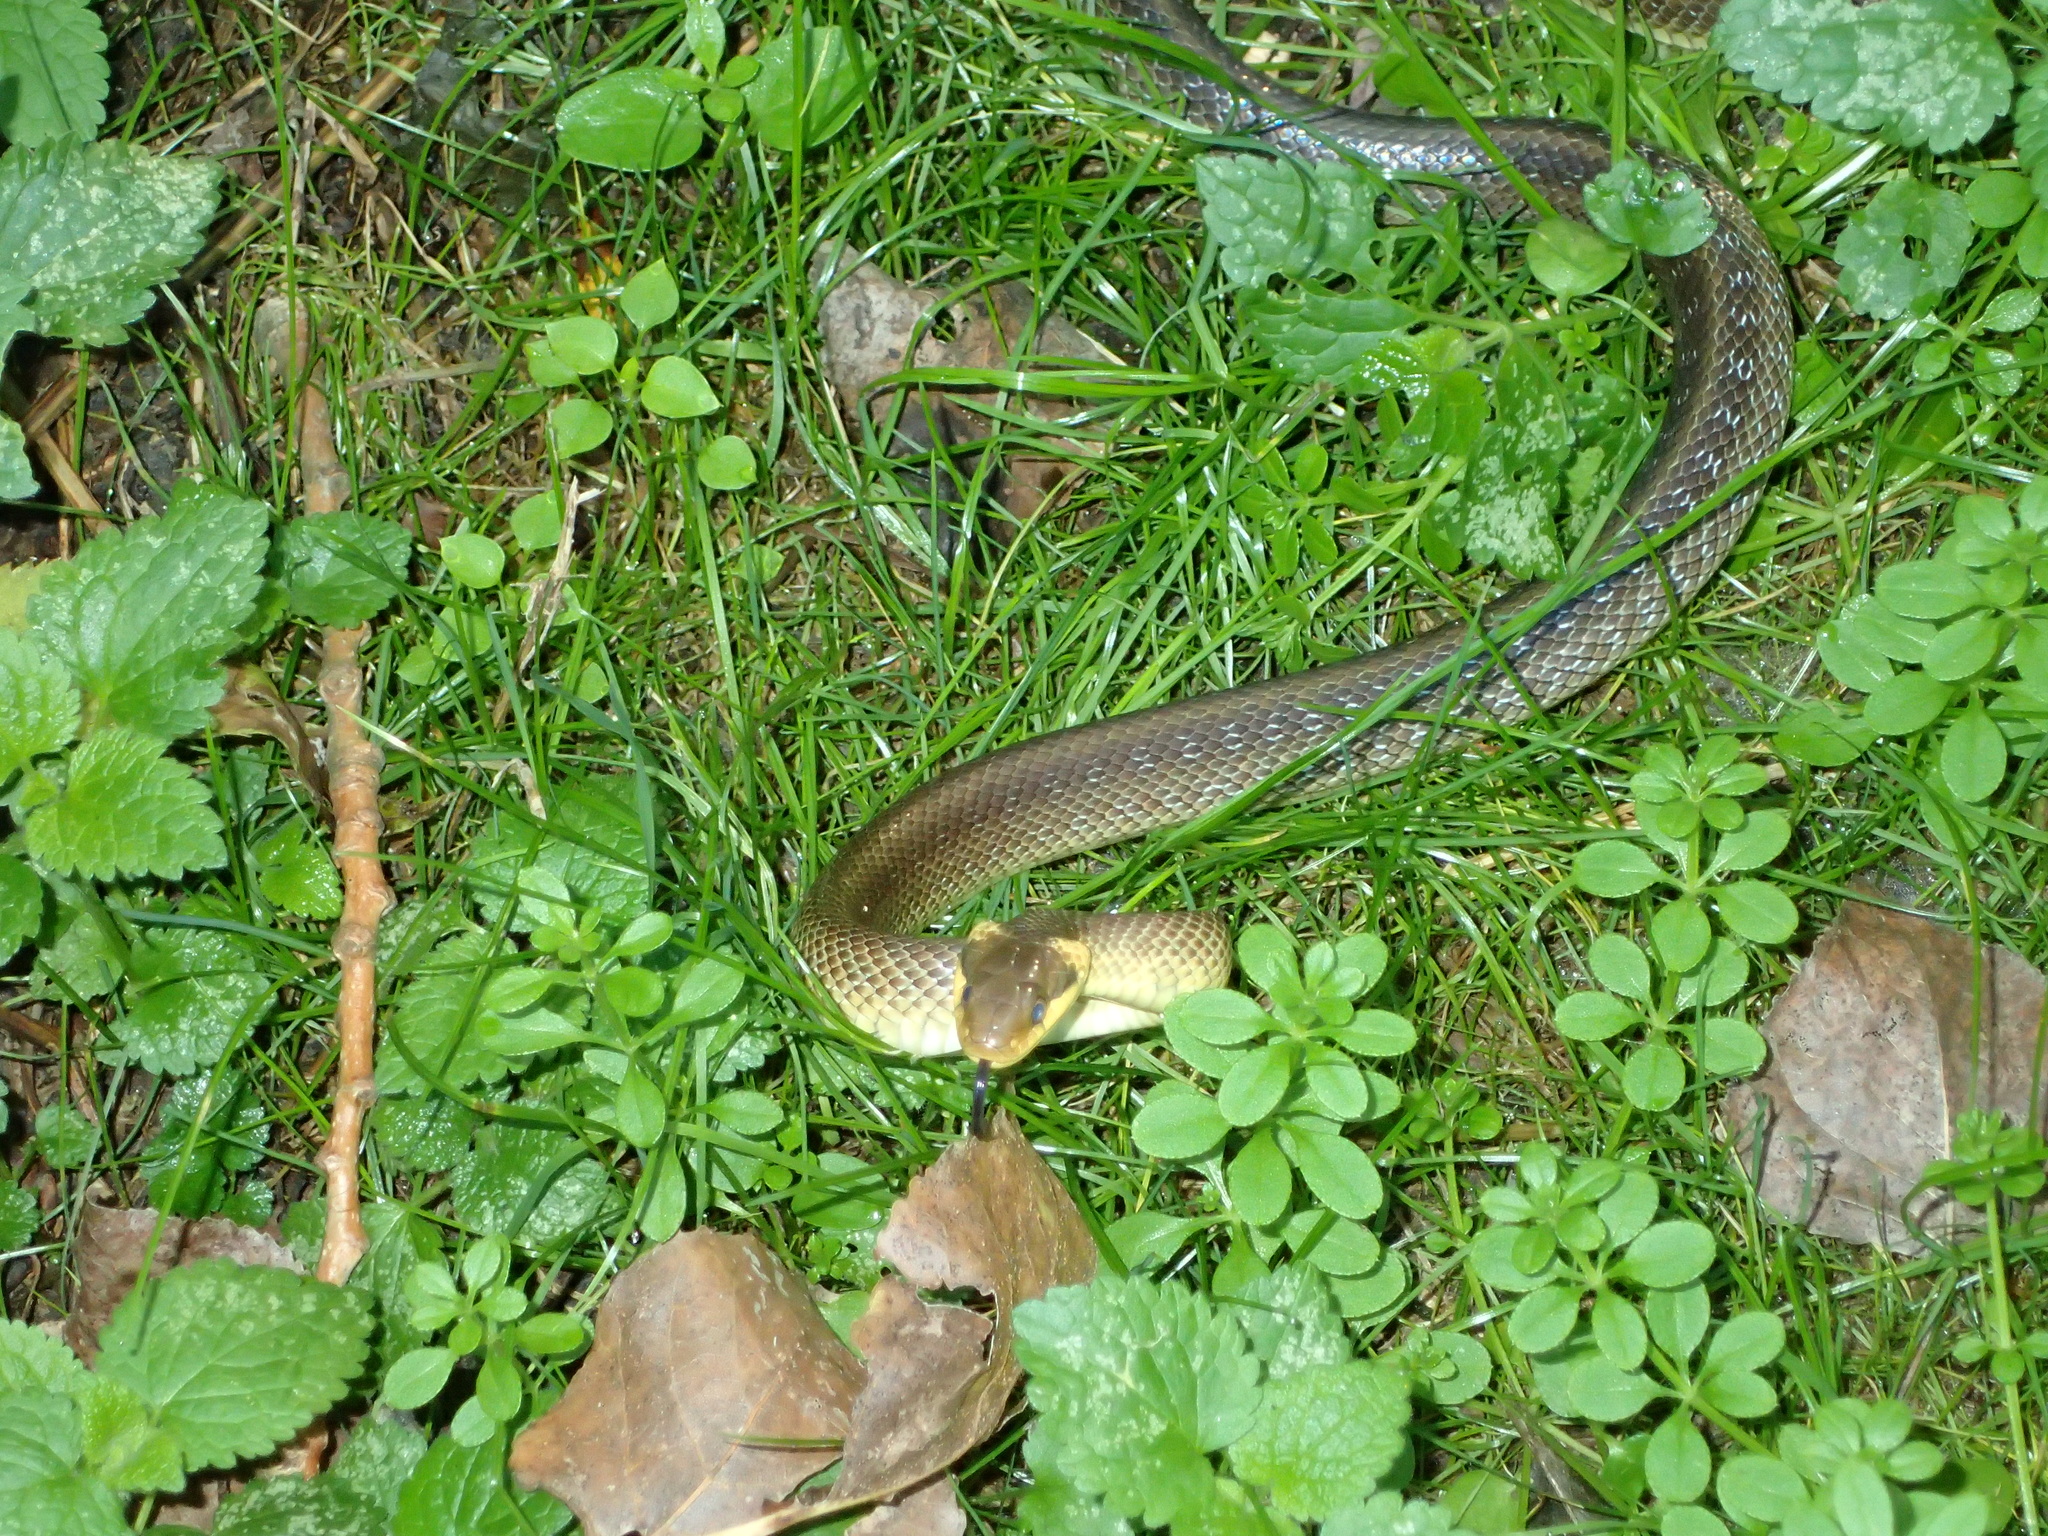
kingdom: Animalia
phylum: Chordata
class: Squamata
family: Colubridae
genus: Zamenis
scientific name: Zamenis longissimus
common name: Aesculapean snake
